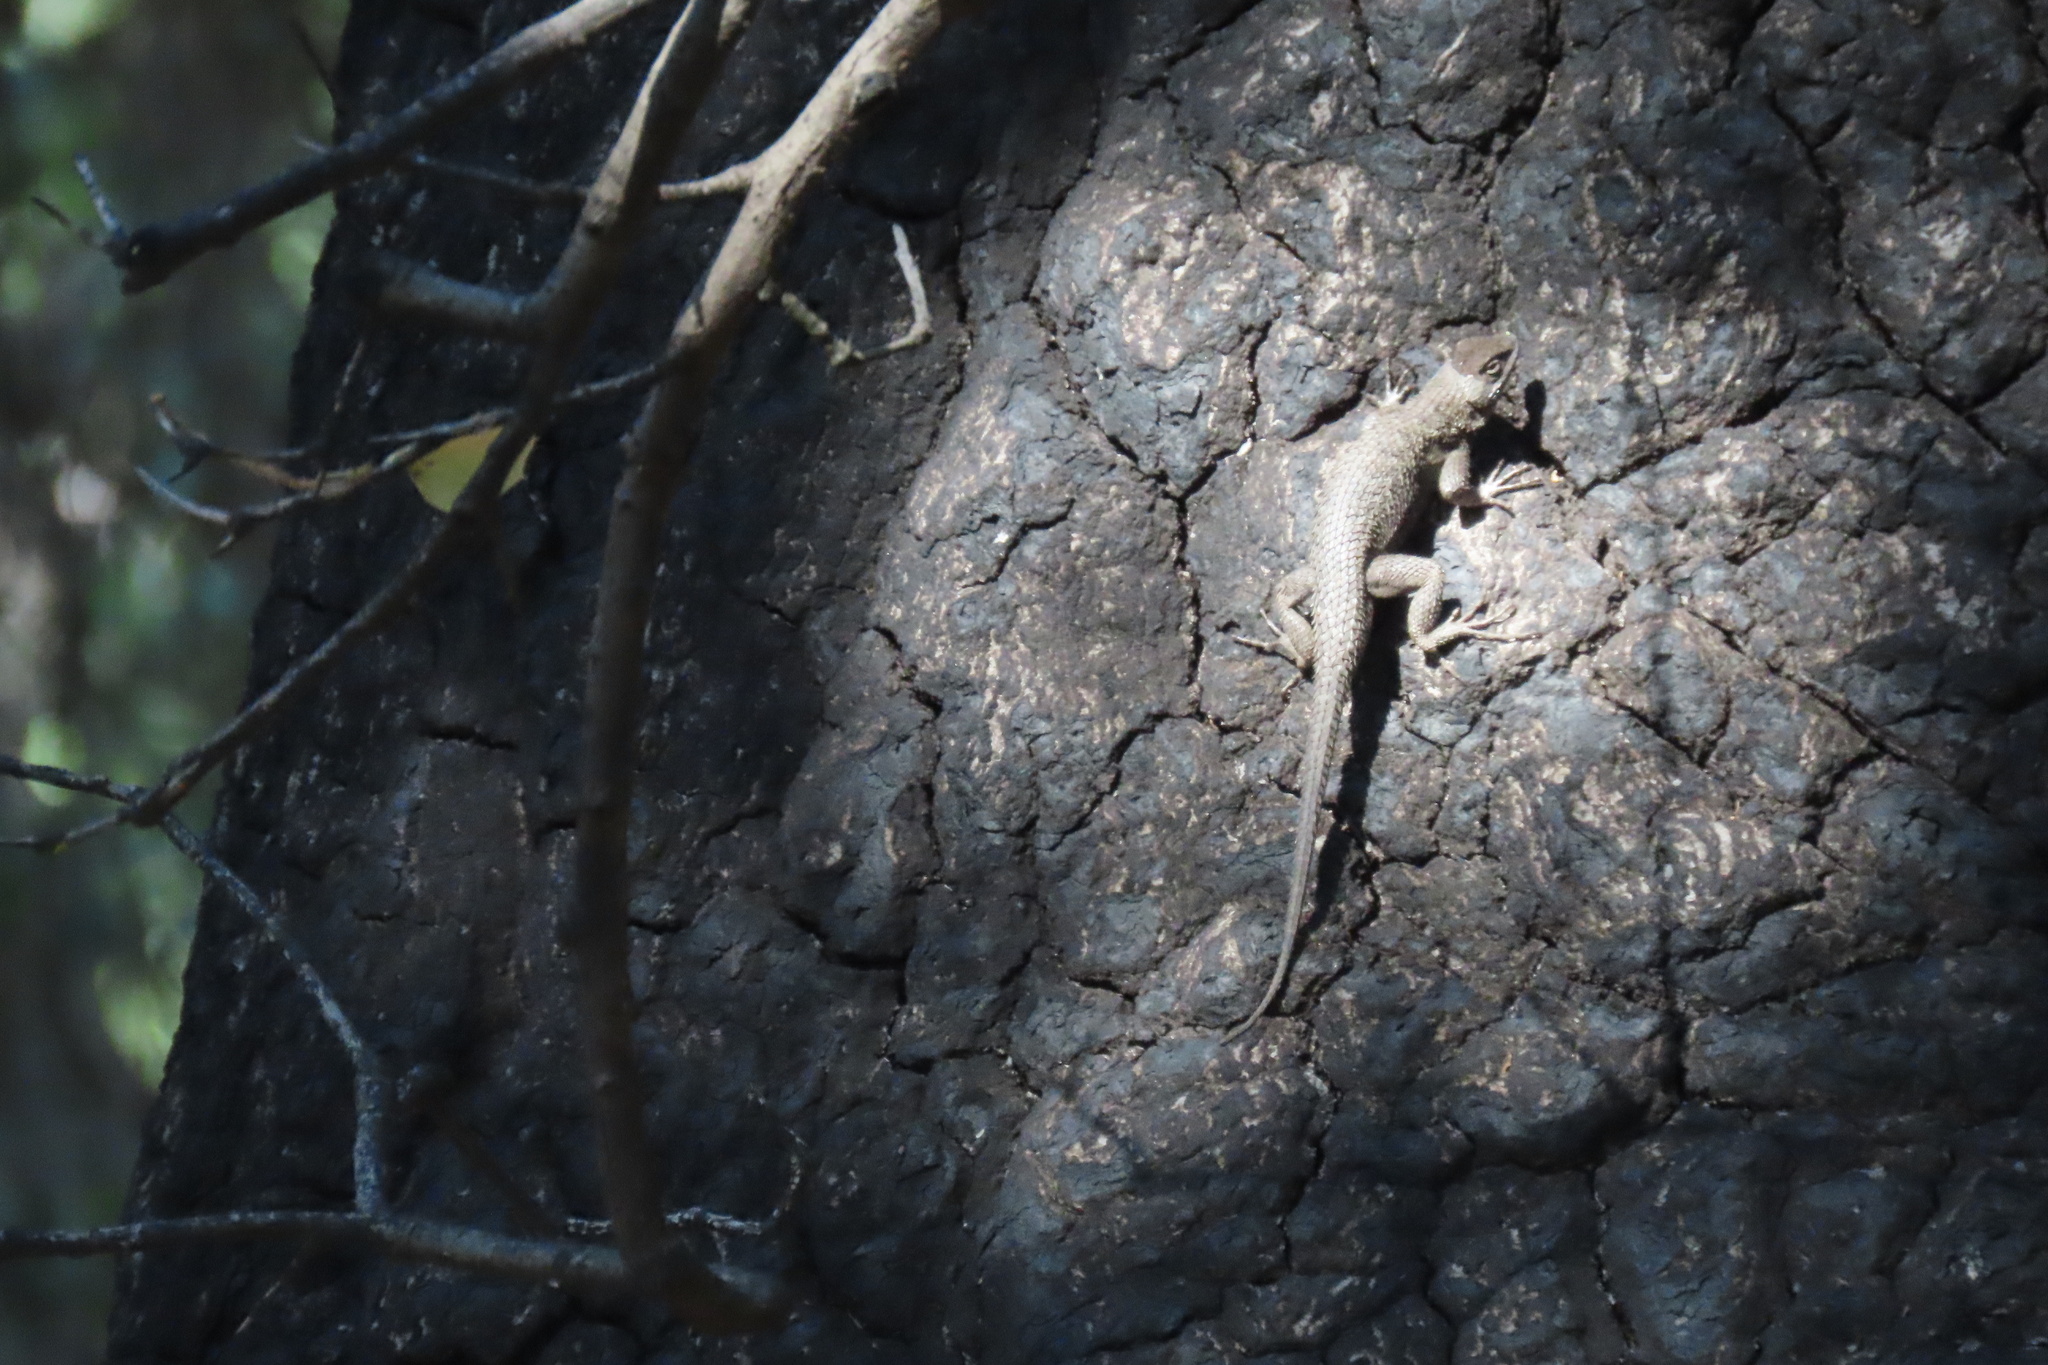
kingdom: Animalia
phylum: Chordata
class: Squamata
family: Phrynosomatidae
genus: Sceloporus
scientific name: Sceloporus occidentalis
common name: Western fence lizard
